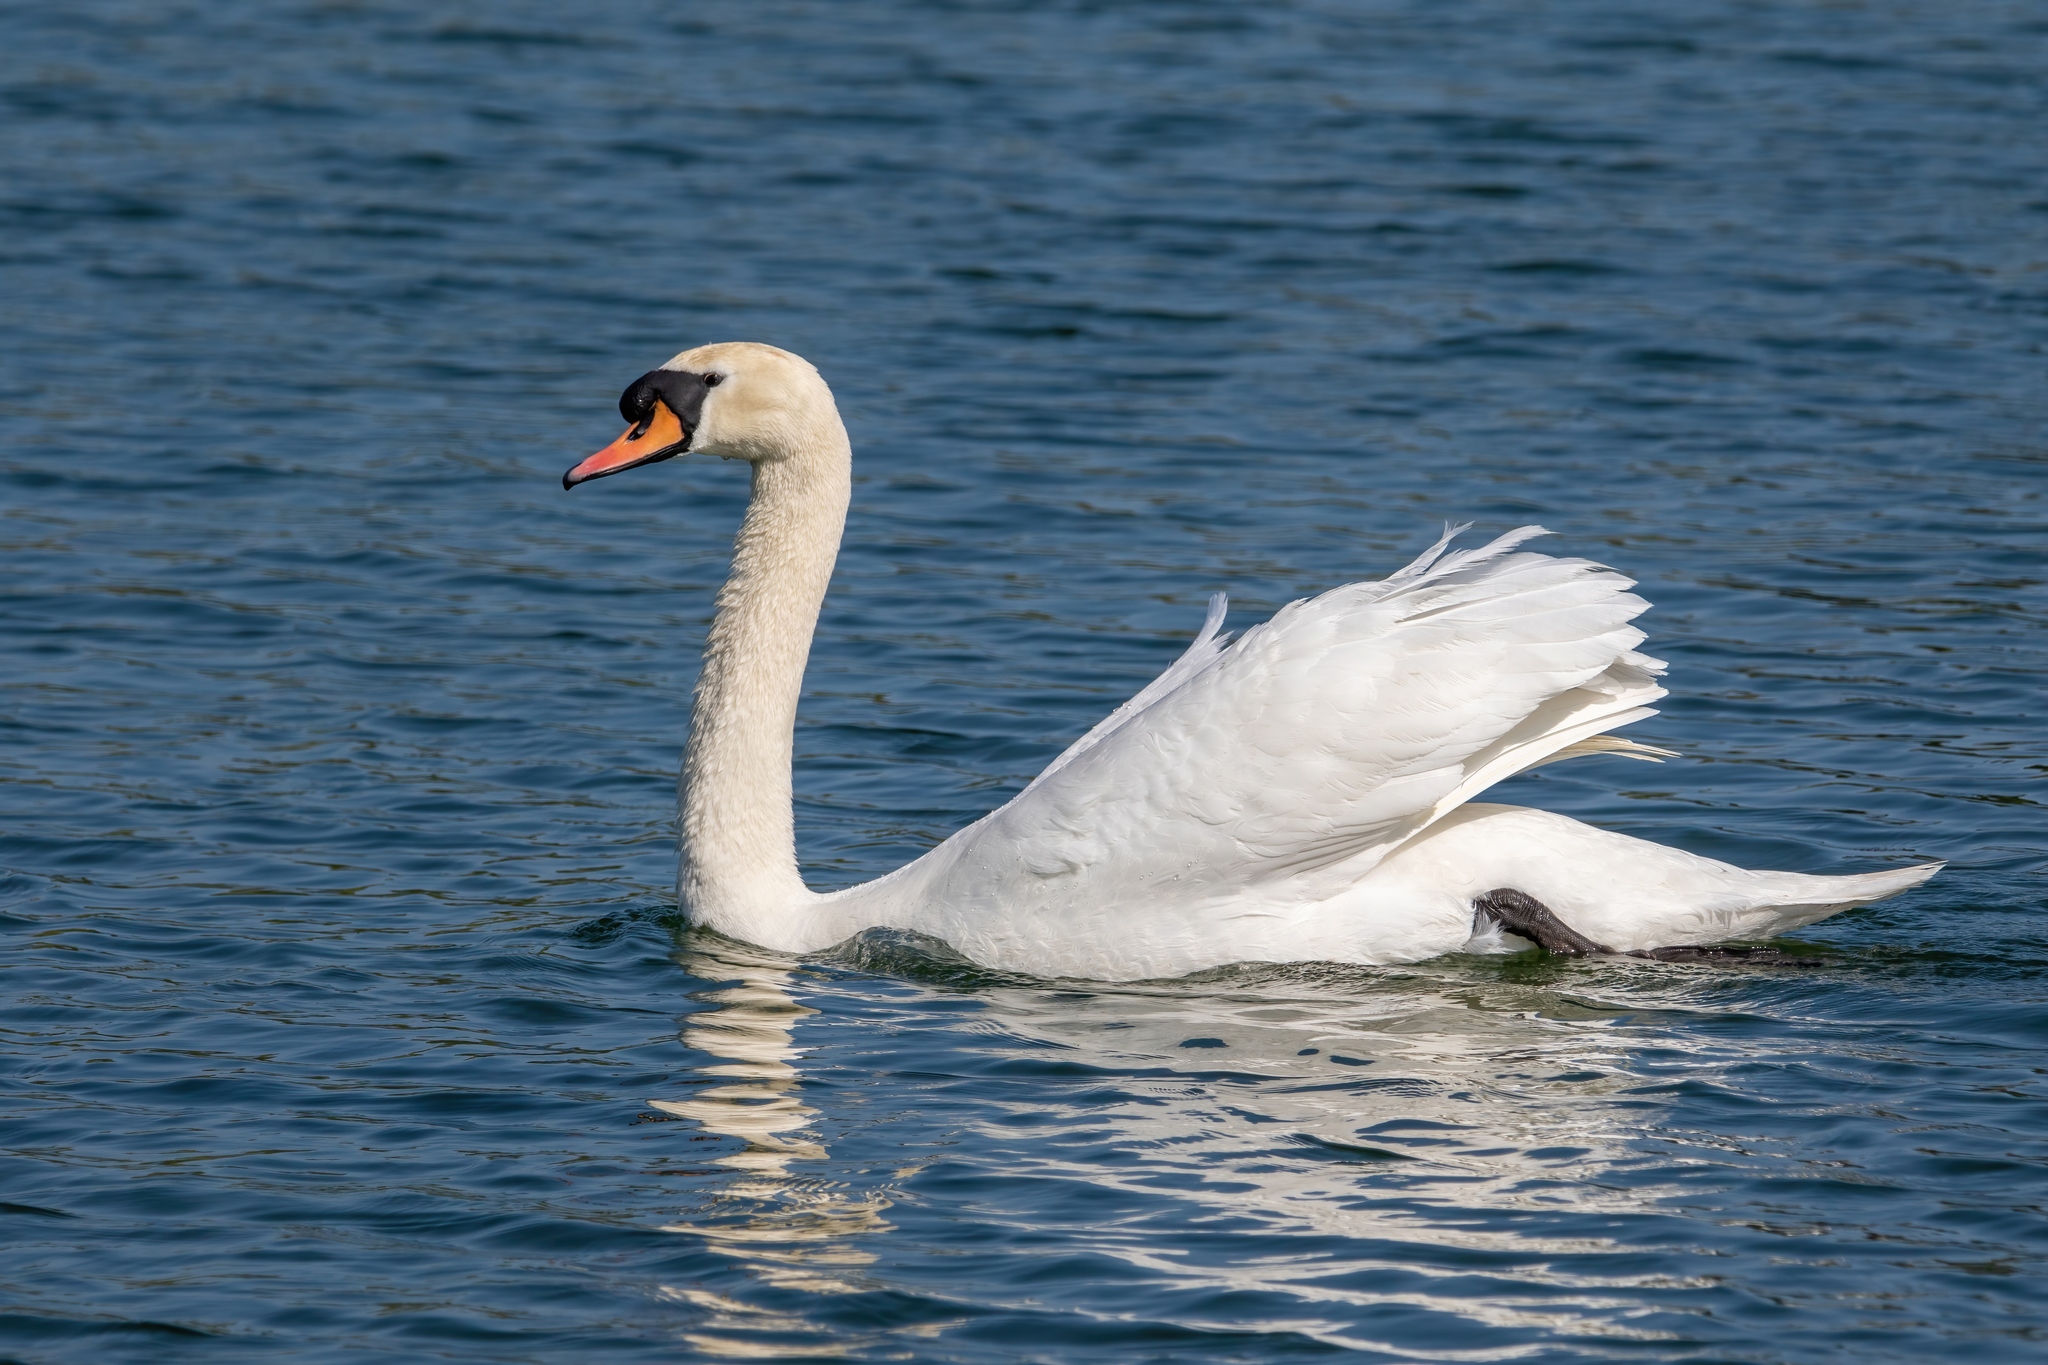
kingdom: Animalia
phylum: Chordata
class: Aves
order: Anseriformes
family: Anatidae
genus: Cygnus
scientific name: Cygnus olor
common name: Mute swan
